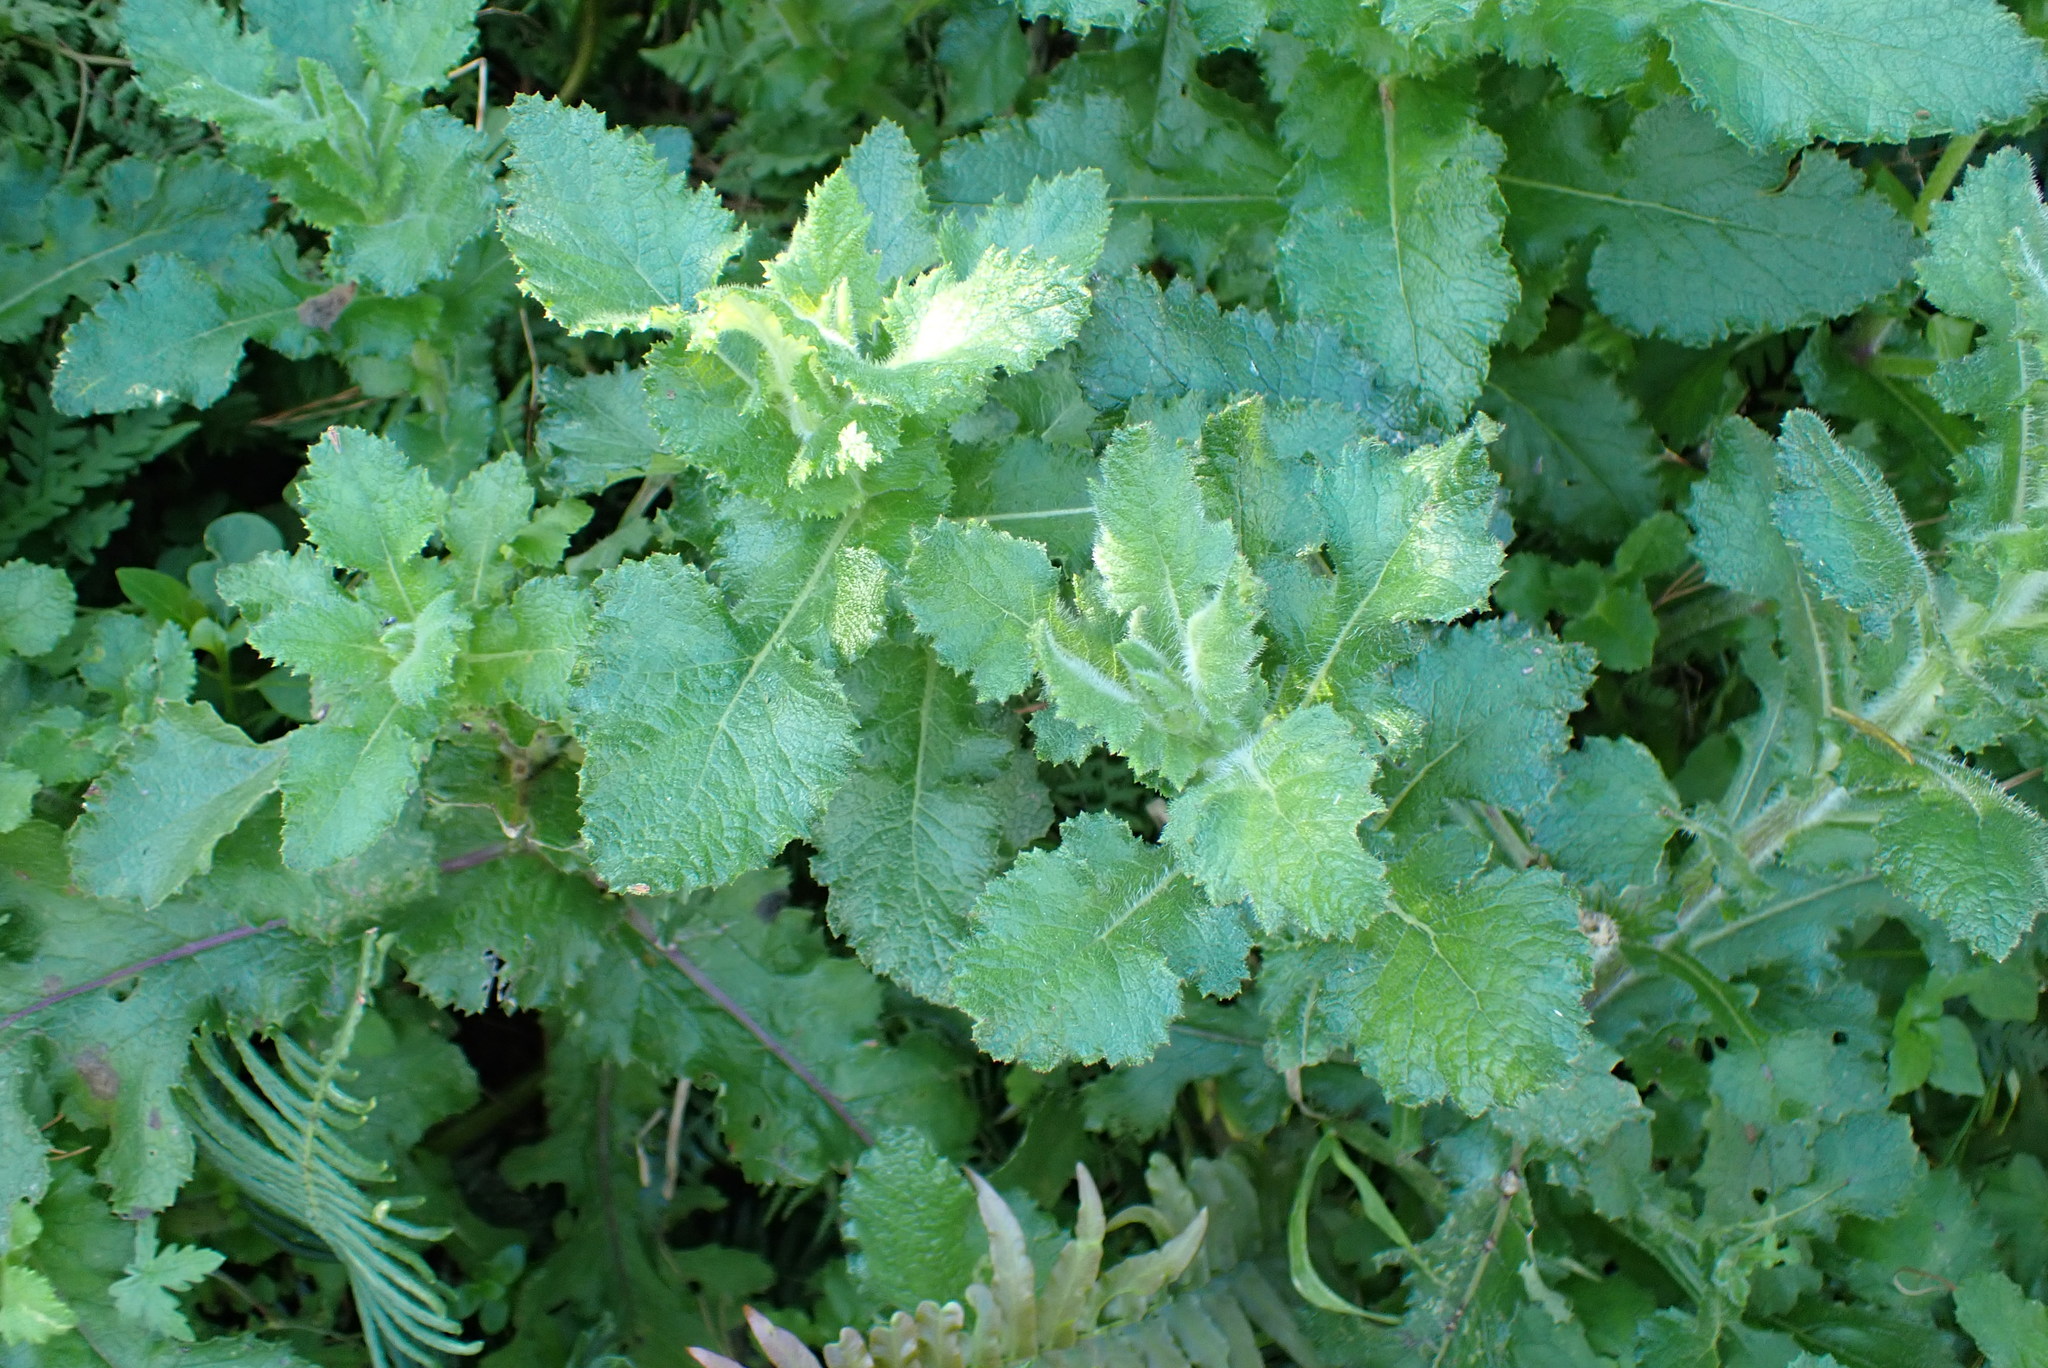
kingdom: Plantae
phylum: Tracheophyta
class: Magnoliopsida
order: Asterales
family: Asteraceae
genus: Senecio
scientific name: Senecio rigidus
